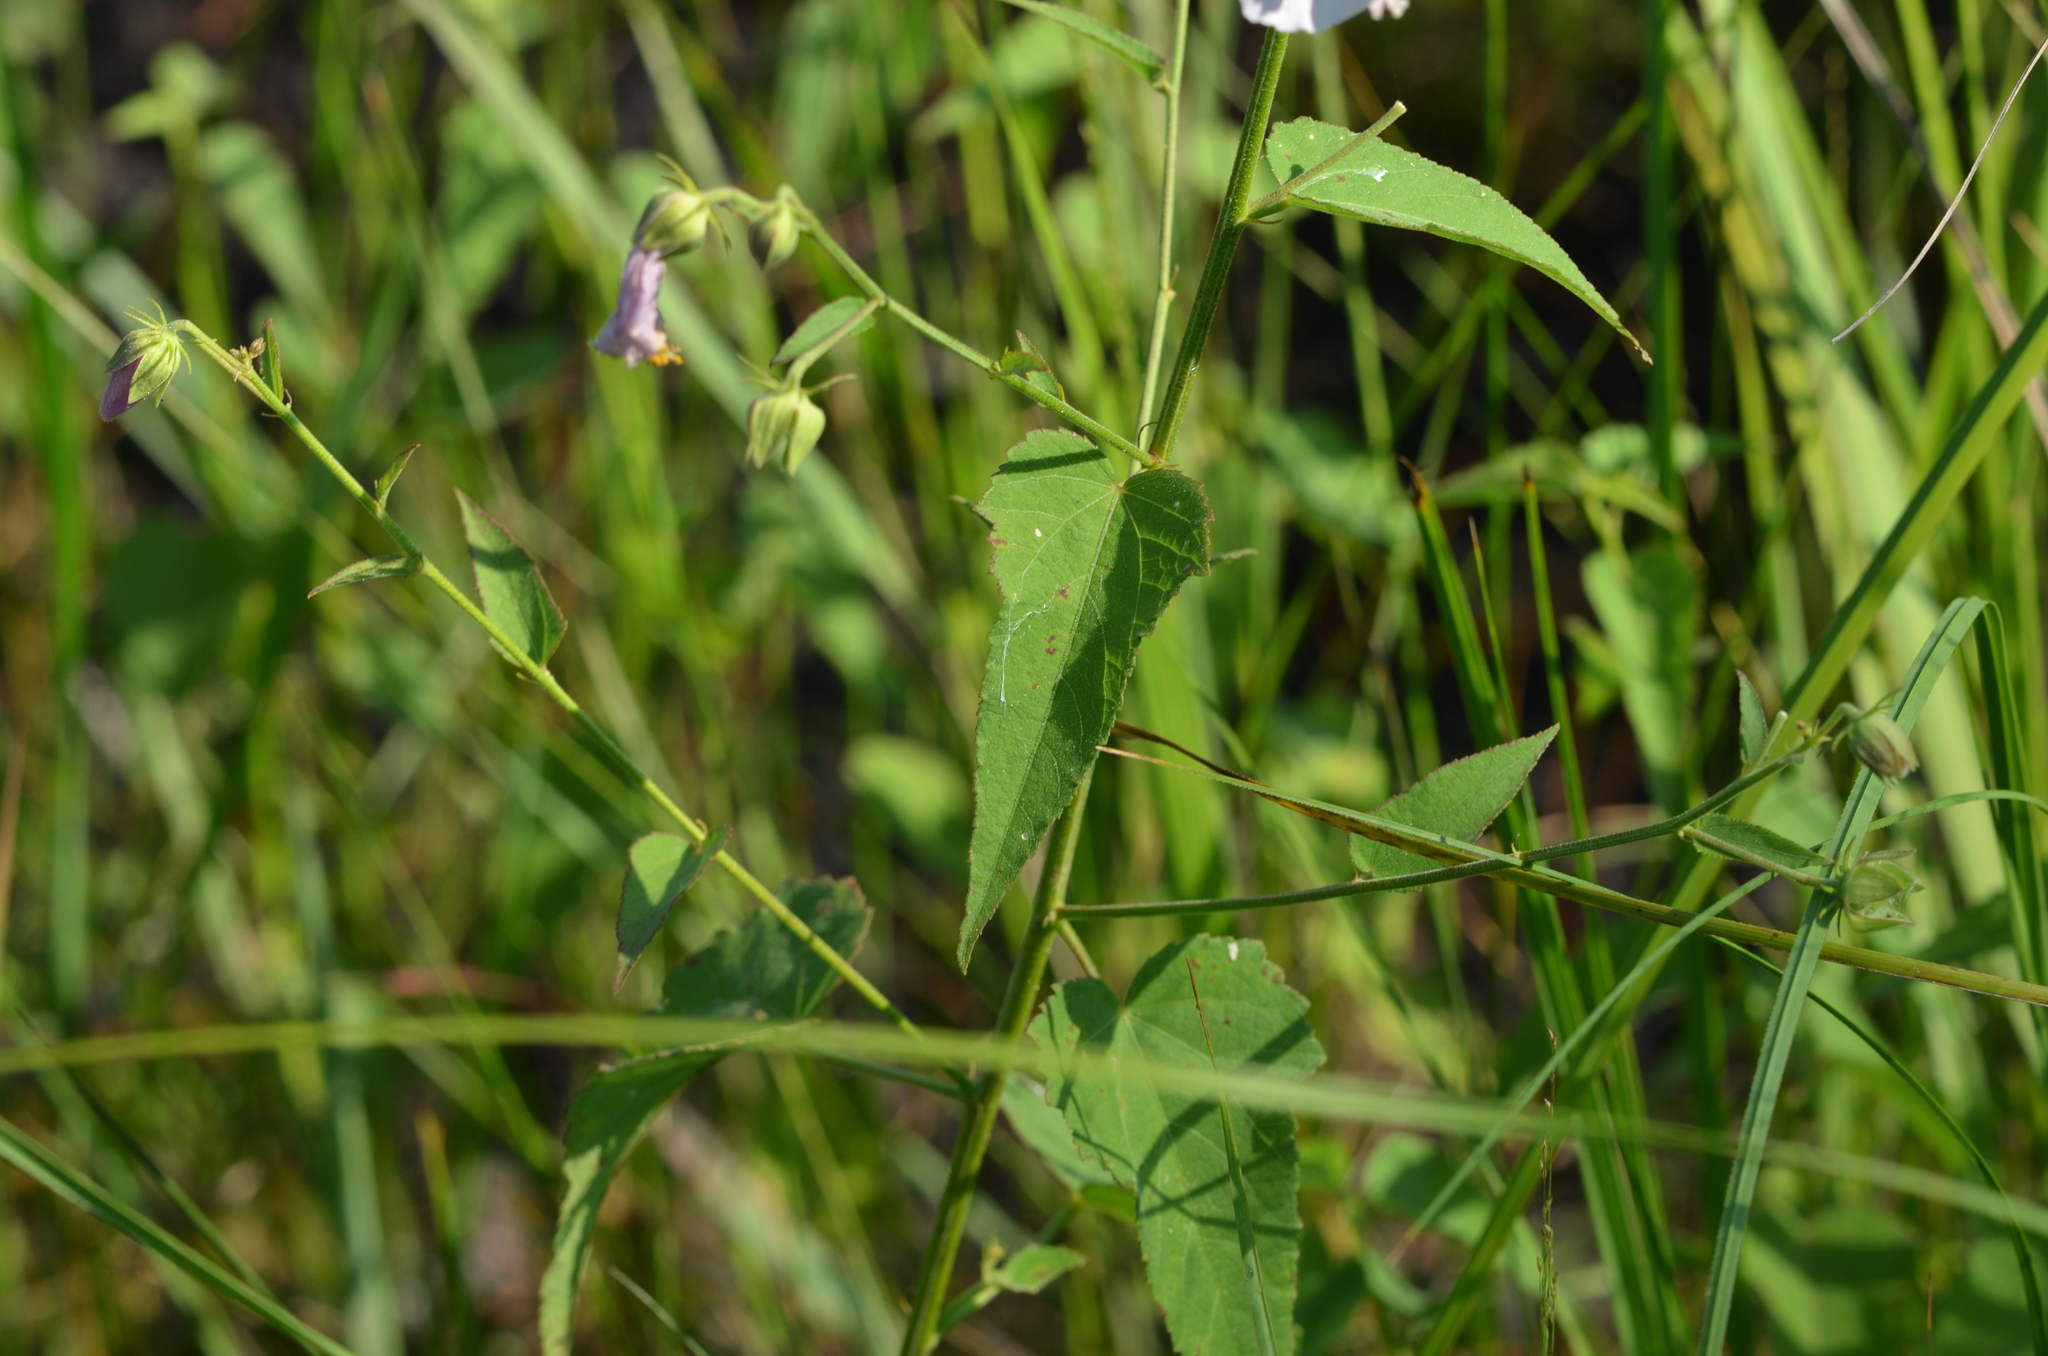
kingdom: Plantae
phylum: Tracheophyta
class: Magnoliopsida
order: Malvales
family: Malvaceae
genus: Kosteletzkya
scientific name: Kosteletzkya pentacarpos
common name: Virginia saltmarsh mallow
